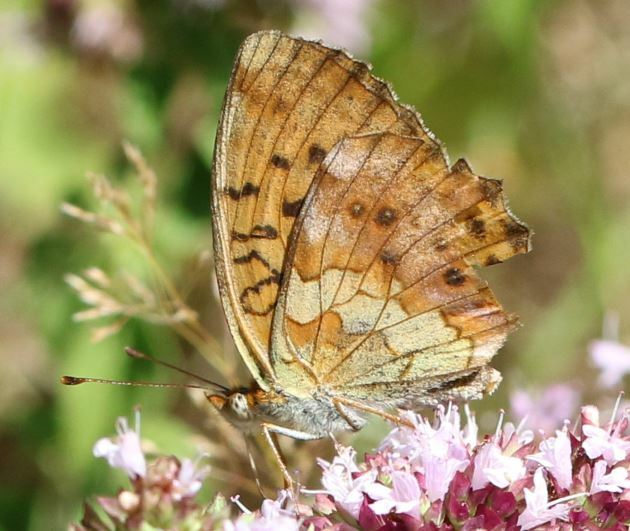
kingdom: Animalia
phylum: Arthropoda
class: Insecta
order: Lepidoptera
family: Nymphalidae
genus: Brenthis
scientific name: Brenthis daphne
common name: Marbled fritillary
